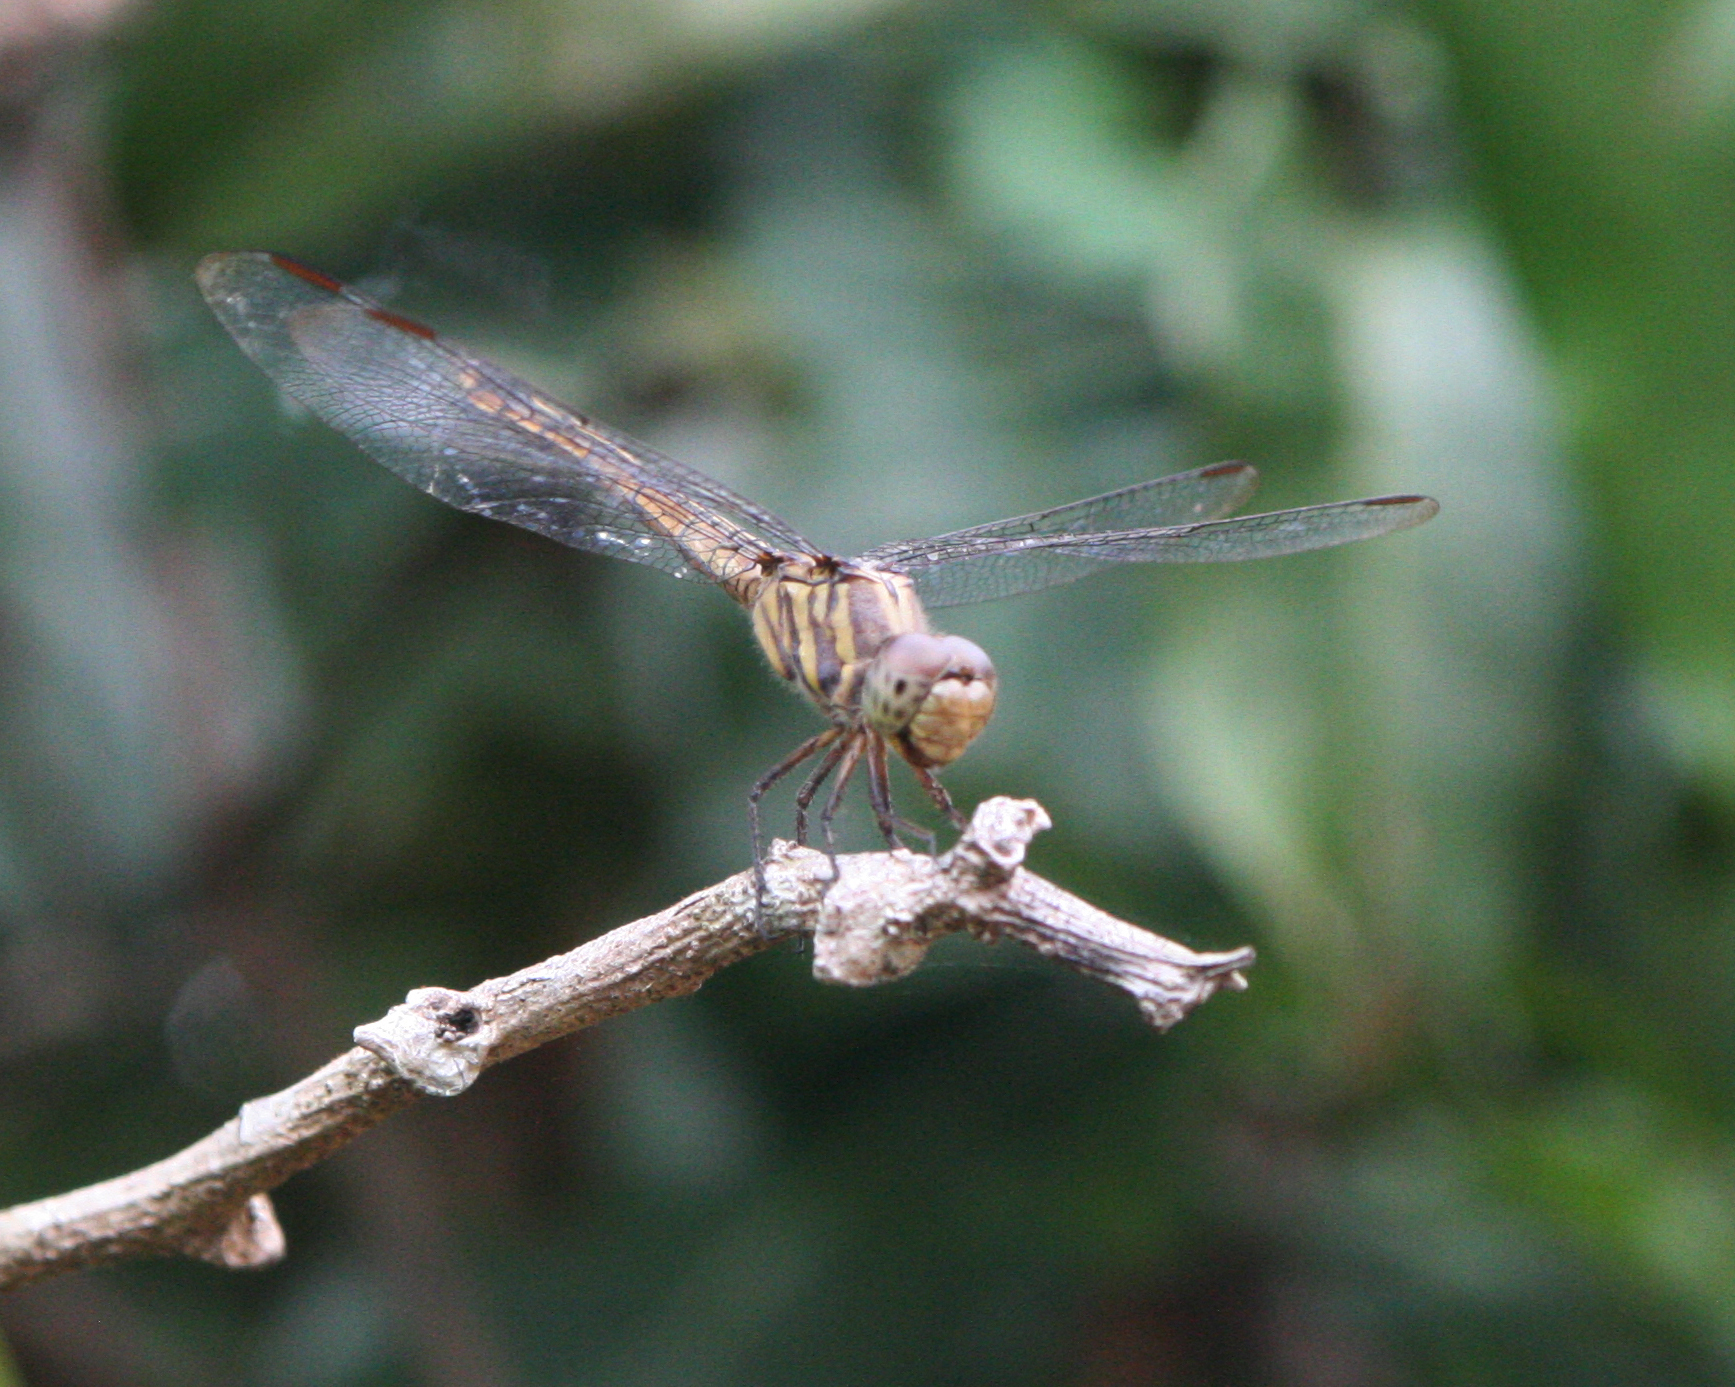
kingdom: Animalia
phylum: Arthropoda
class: Insecta
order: Odonata
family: Libellulidae
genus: Potamarcha
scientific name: Potamarcha congener
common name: Blue chaser
